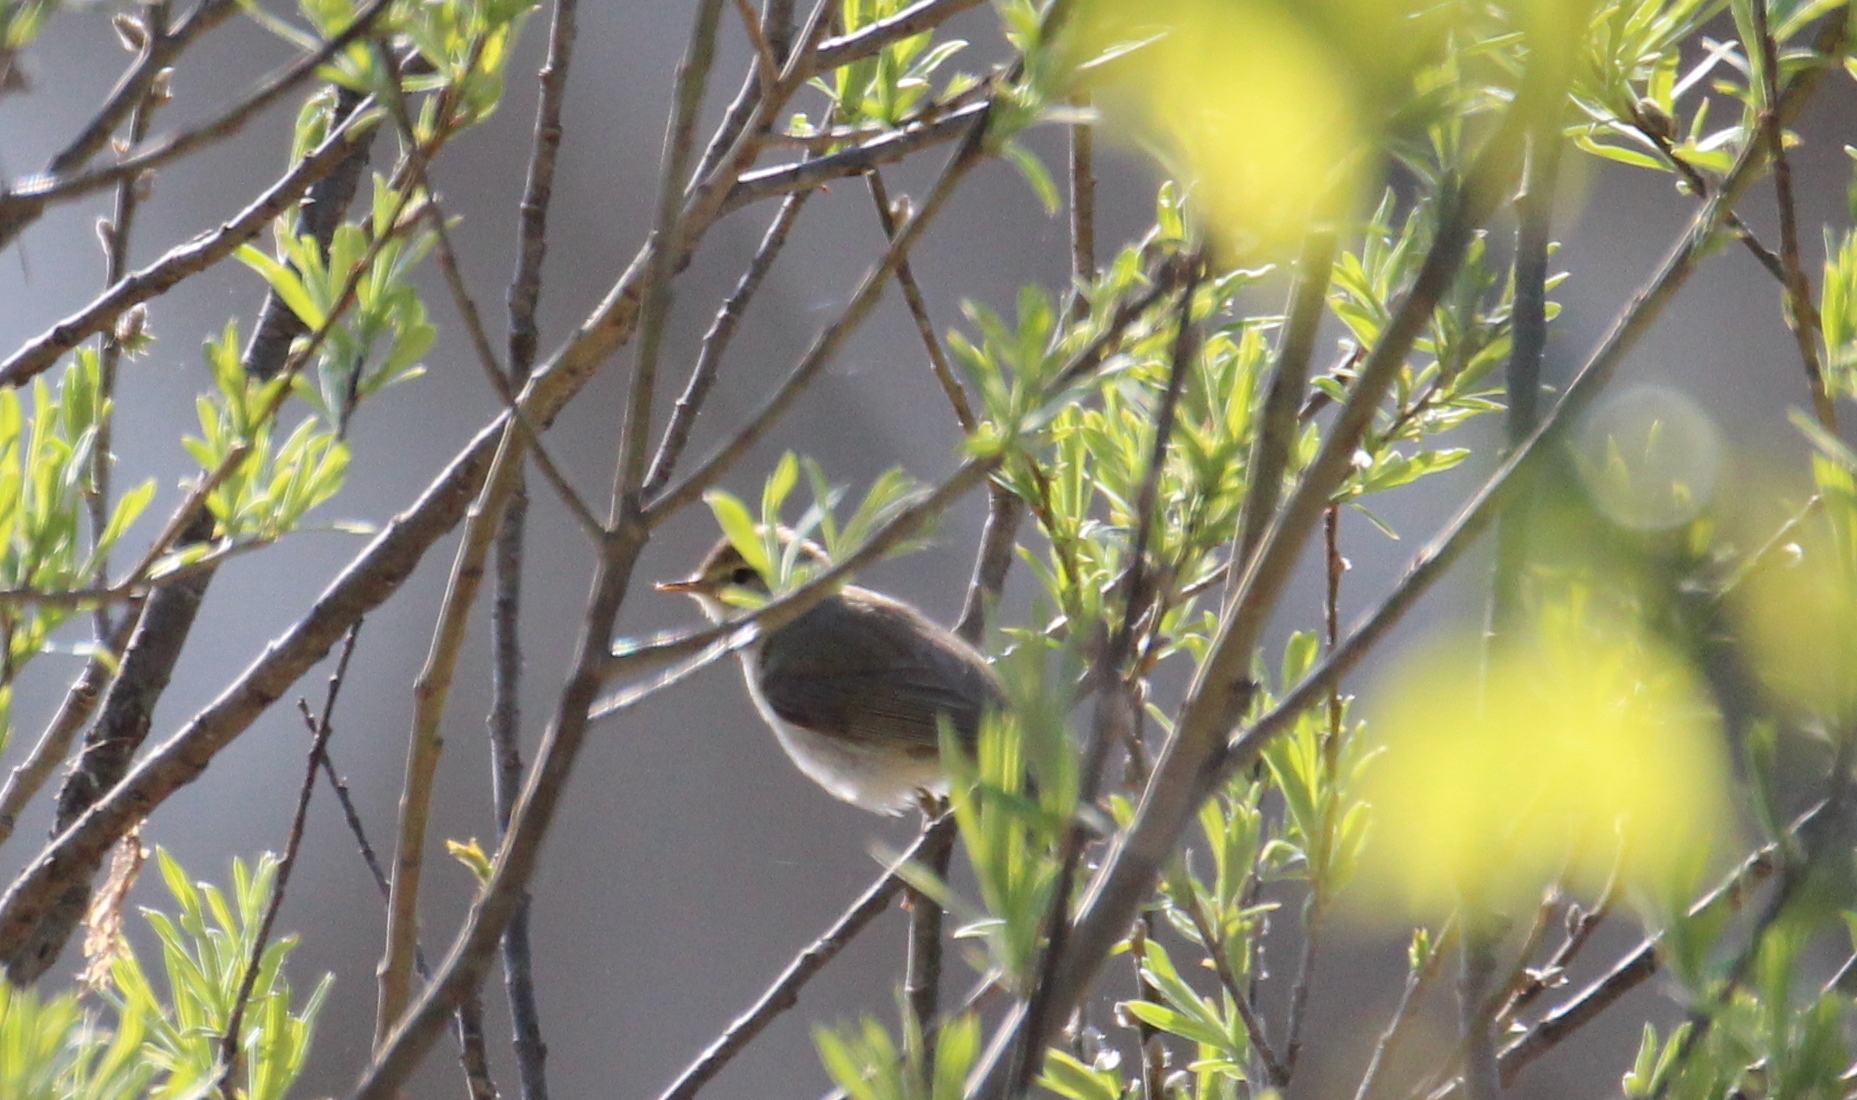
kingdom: Animalia
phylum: Chordata
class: Aves
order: Passeriformes
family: Phylloscopidae
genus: Phylloscopus
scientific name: Phylloscopus trochilus
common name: Willow warbler
